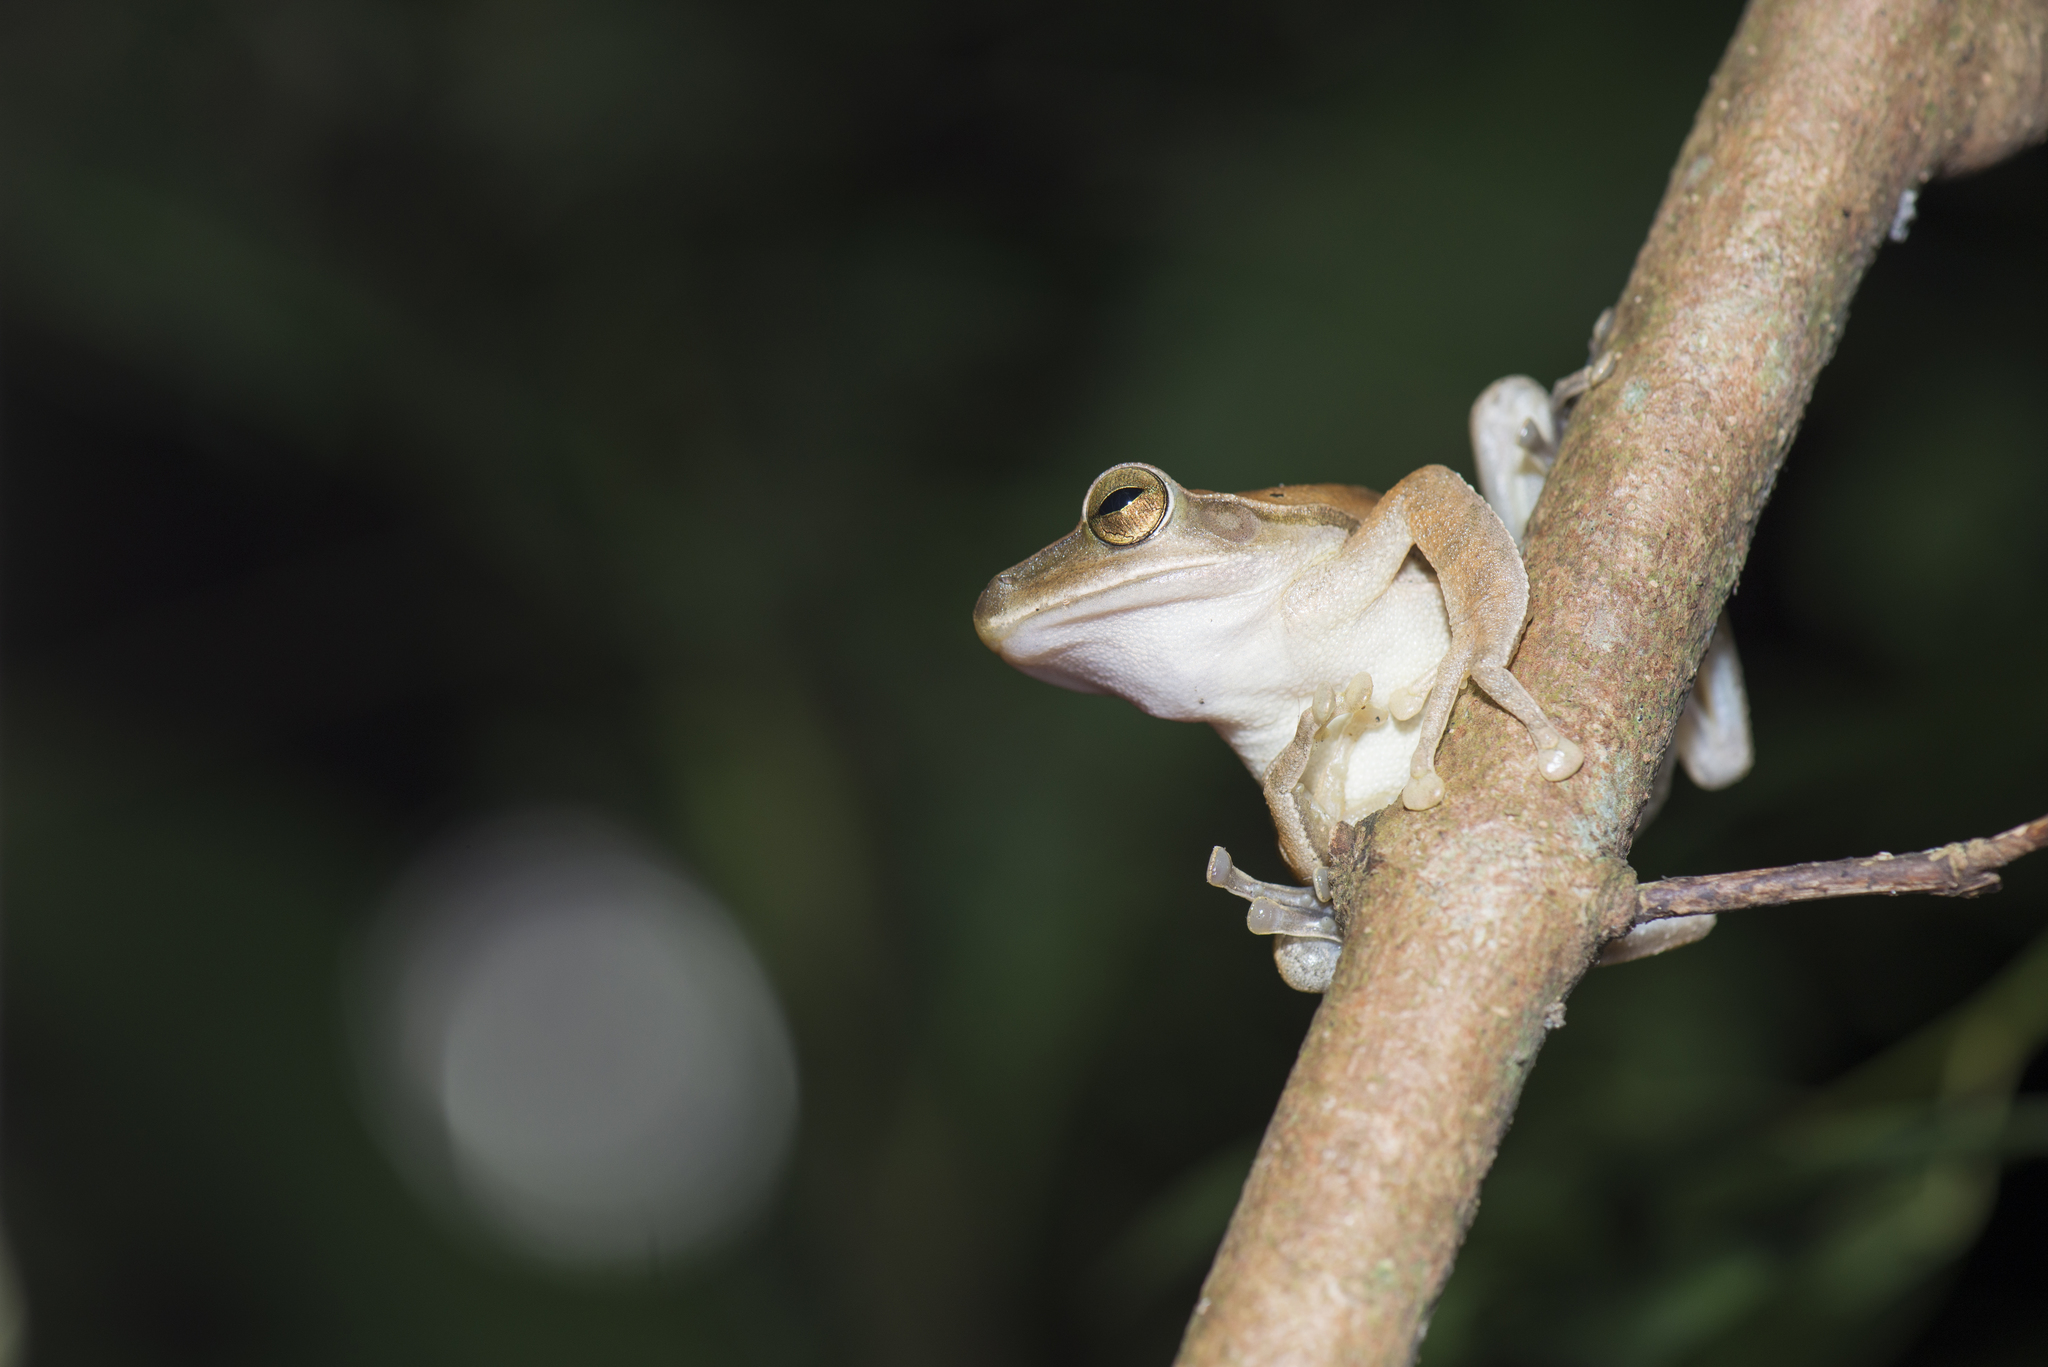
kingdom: Animalia
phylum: Chordata
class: Amphibia
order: Anura
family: Rhacophoridae
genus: Polypedates
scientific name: Polypedates megacephalus
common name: Hong kong whipping frog
